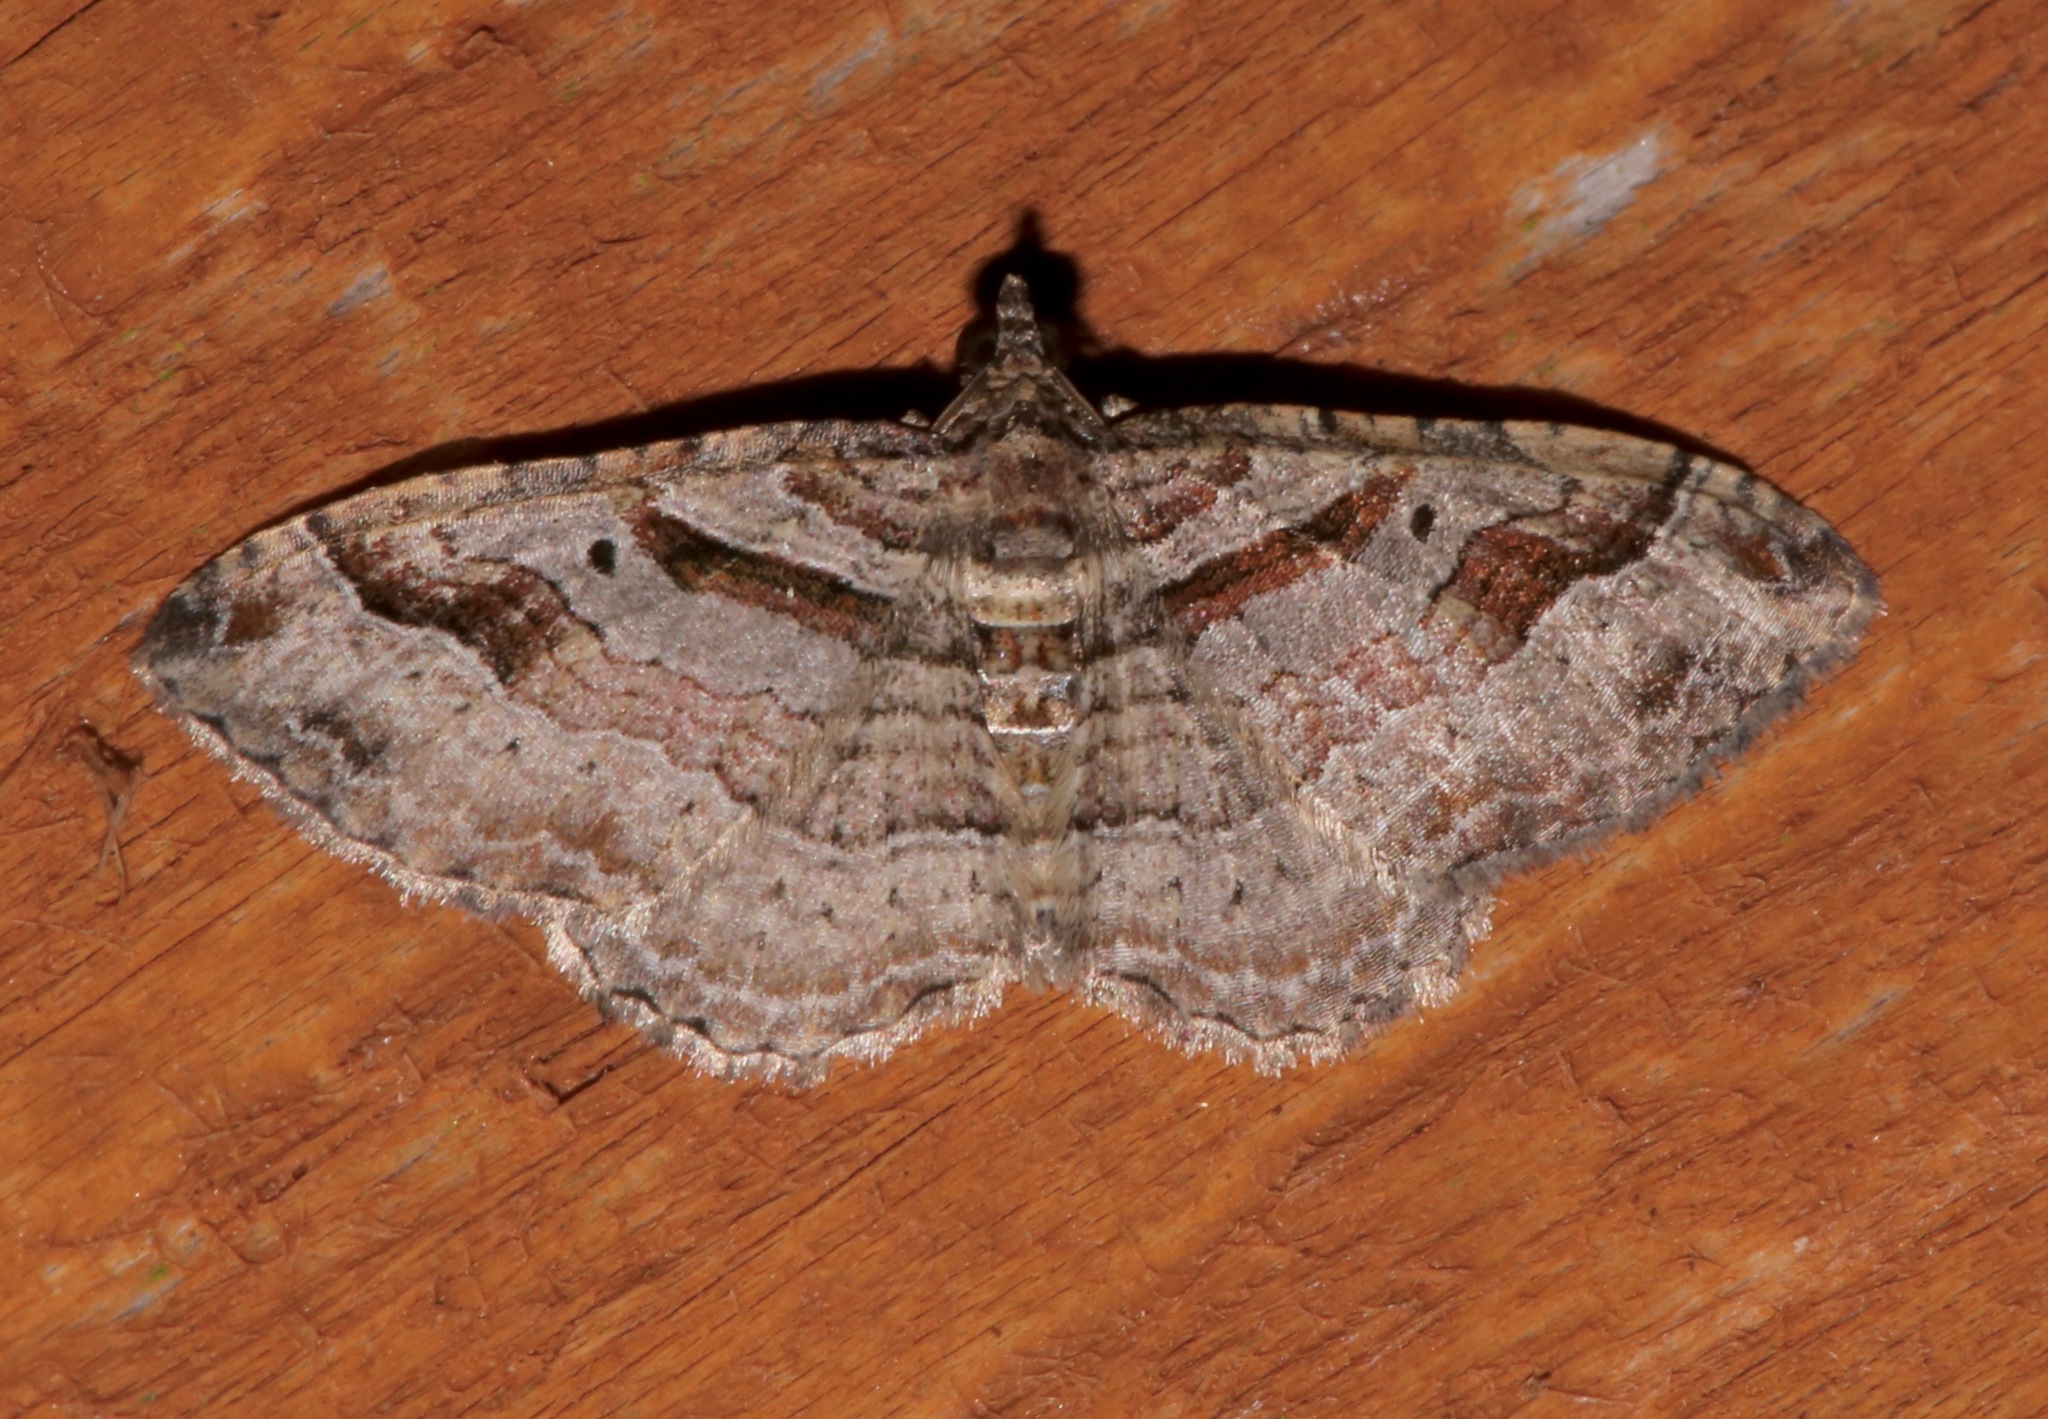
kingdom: Animalia
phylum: Arthropoda
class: Insecta
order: Lepidoptera
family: Geometridae
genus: Costaconvexa
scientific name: Costaconvexa centrostrigaria
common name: Bent-line carpet
